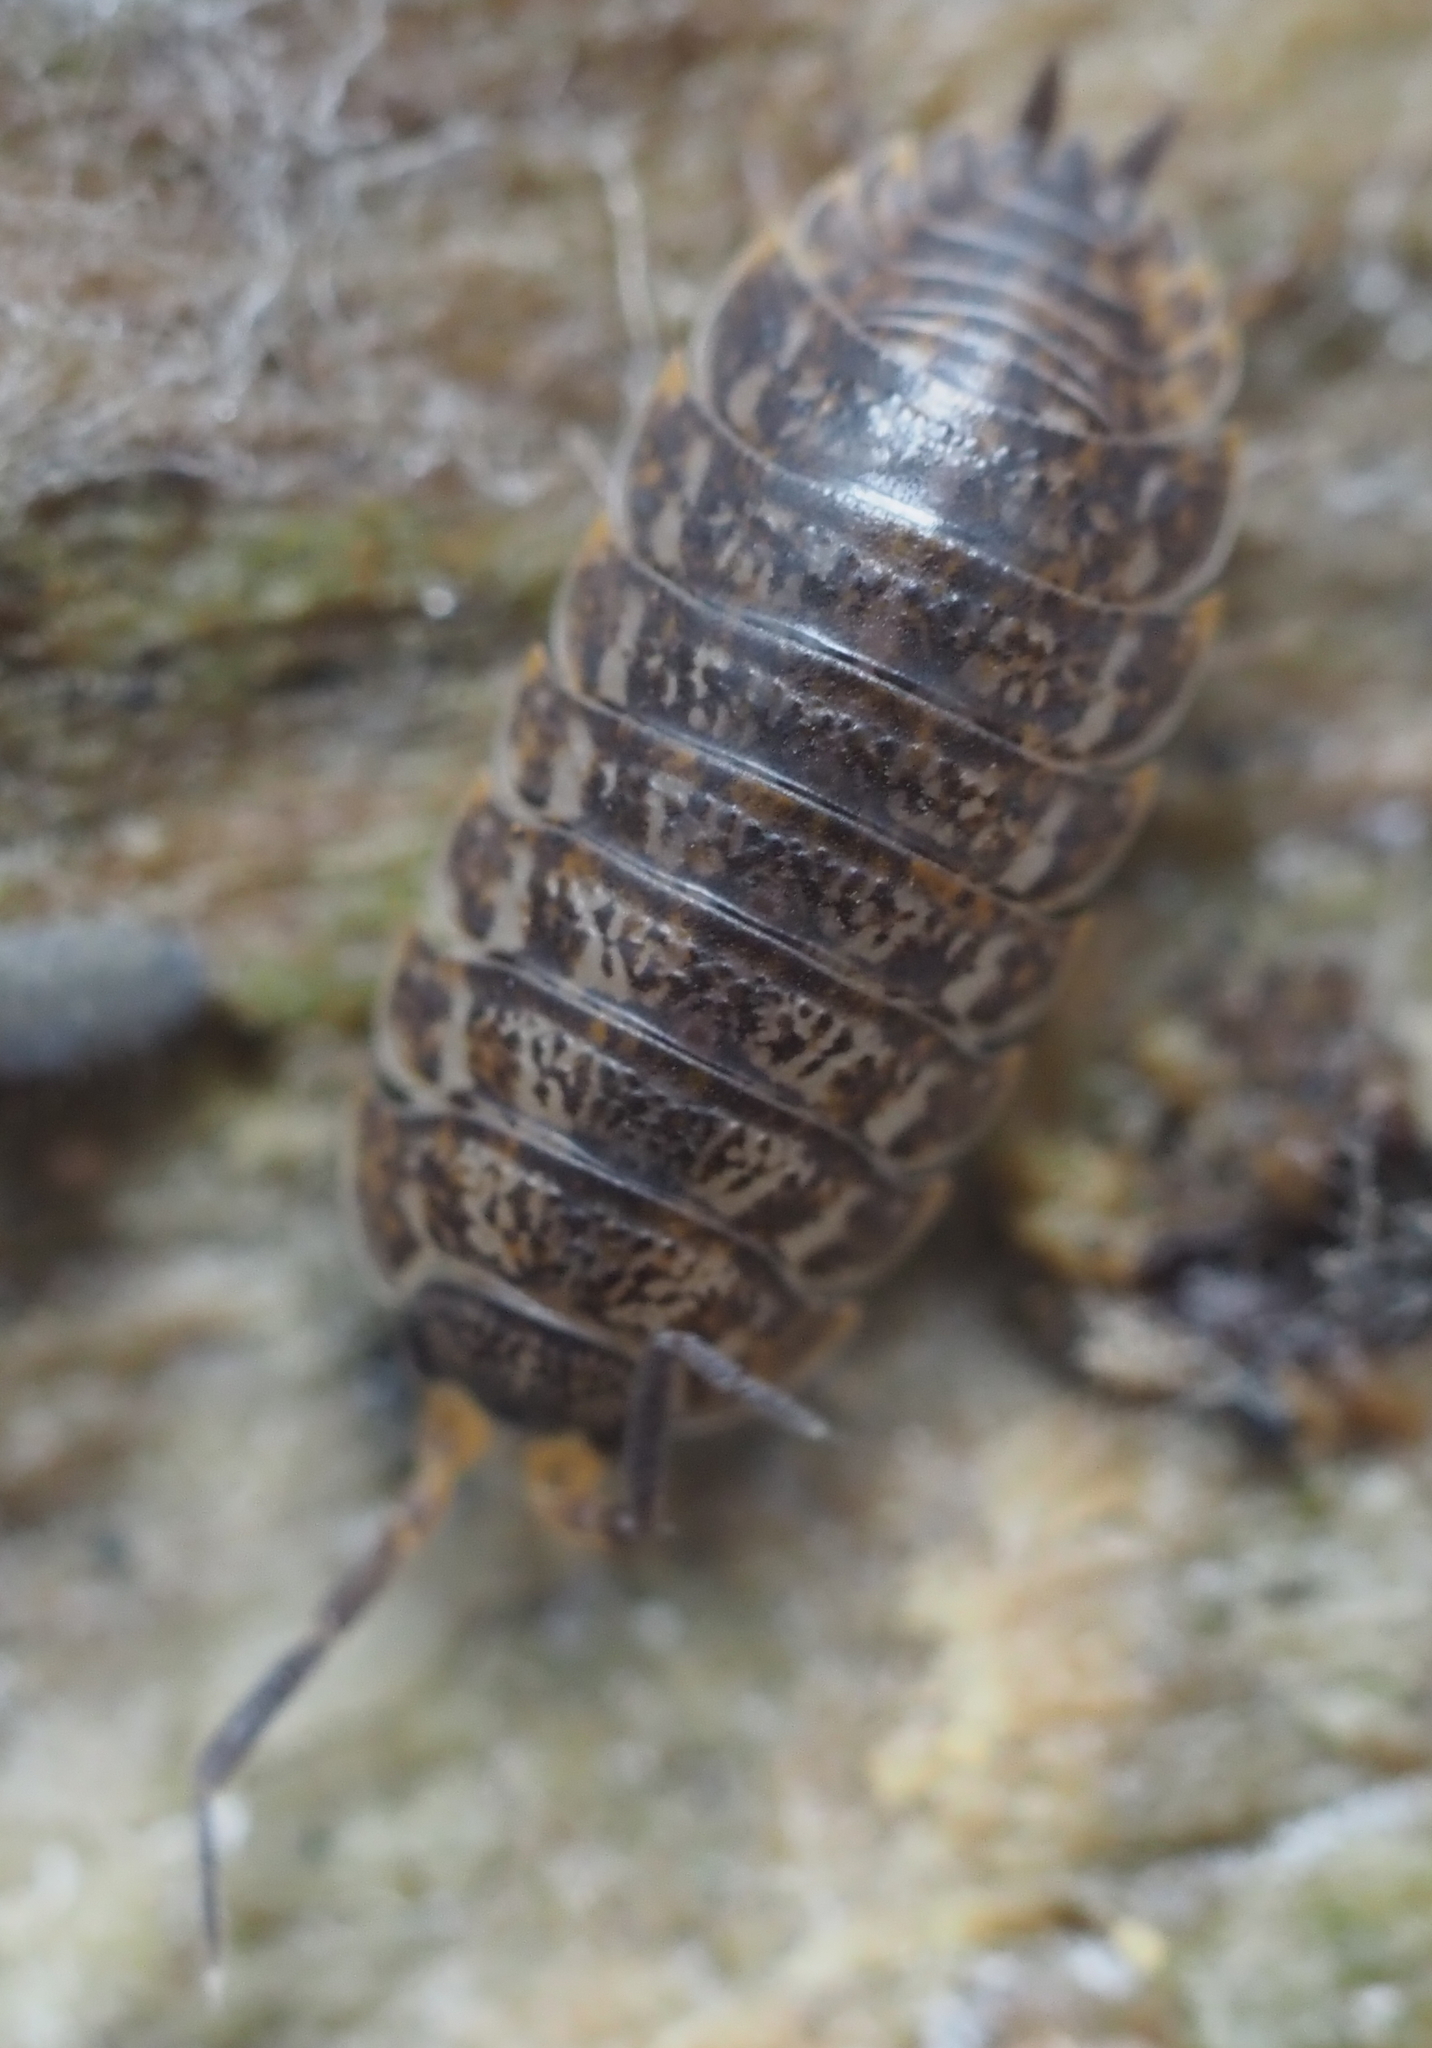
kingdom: Animalia
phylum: Arthropoda
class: Malacostraca
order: Isopoda
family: Trachelipodidae
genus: Trachelipus
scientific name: Trachelipus rathkii
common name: Isopod
